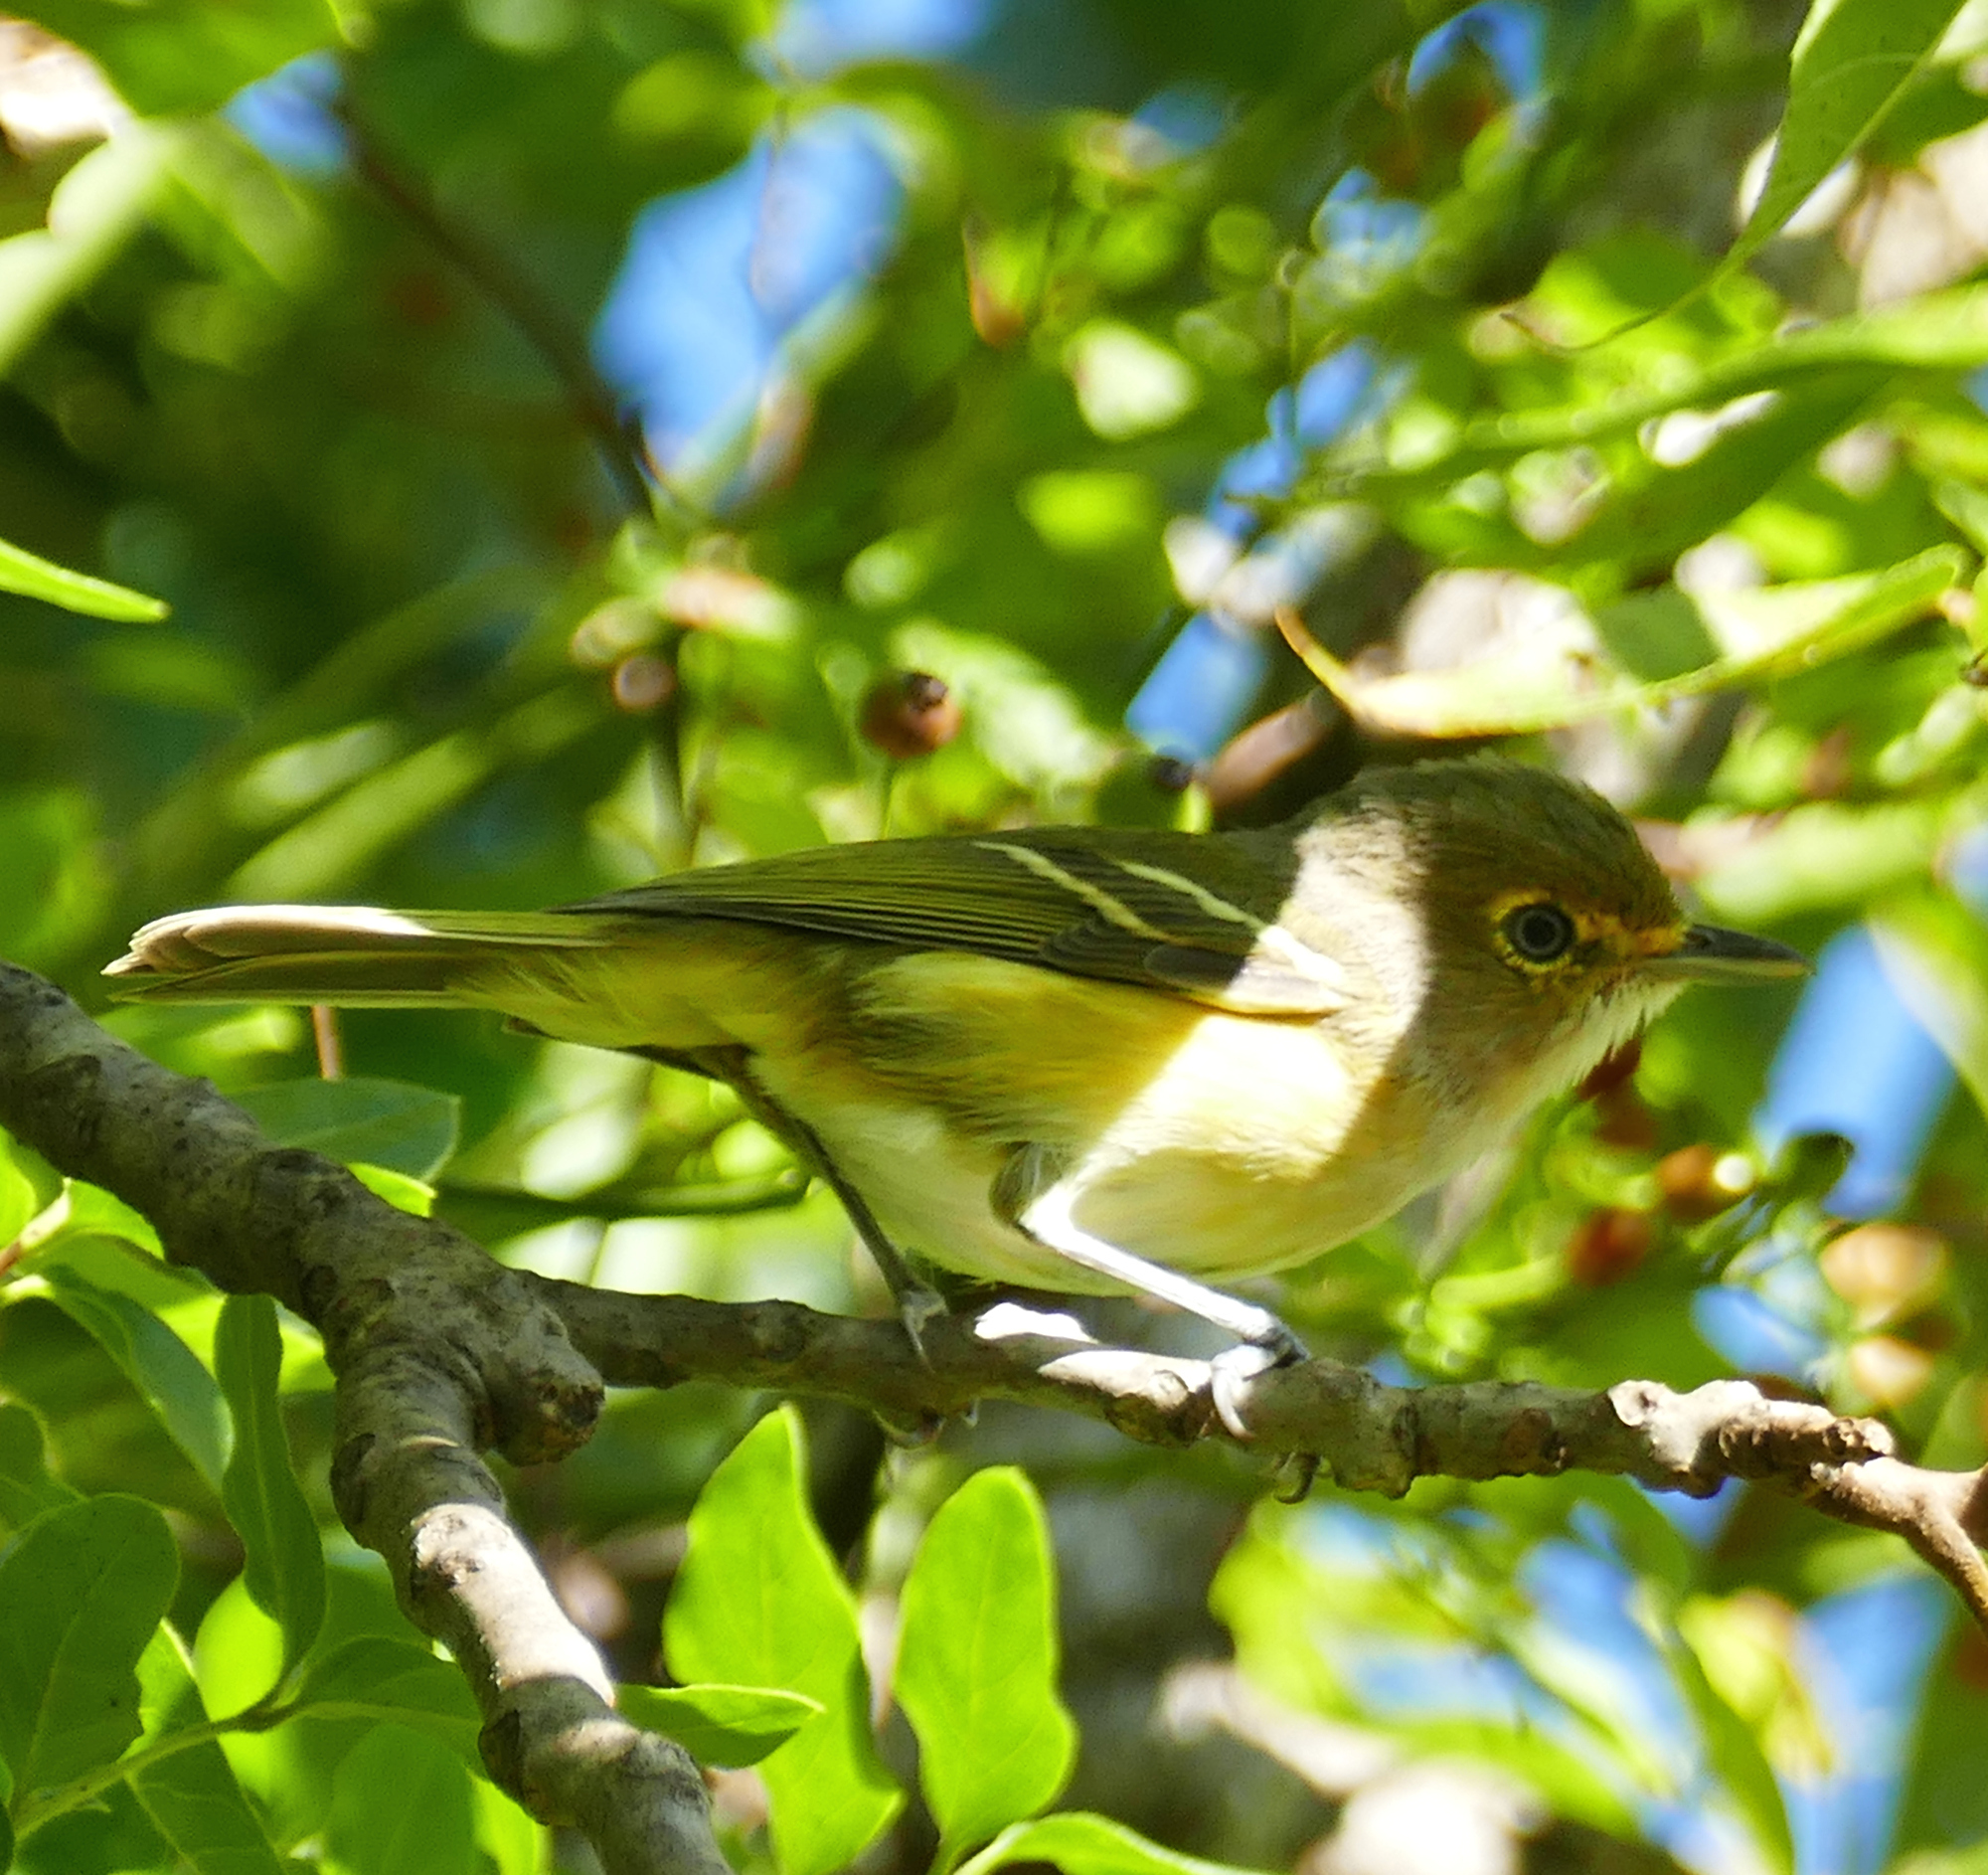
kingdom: Animalia
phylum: Chordata
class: Aves
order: Passeriformes
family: Vireonidae
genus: Vireo
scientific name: Vireo griseus
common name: White-eyed vireo
